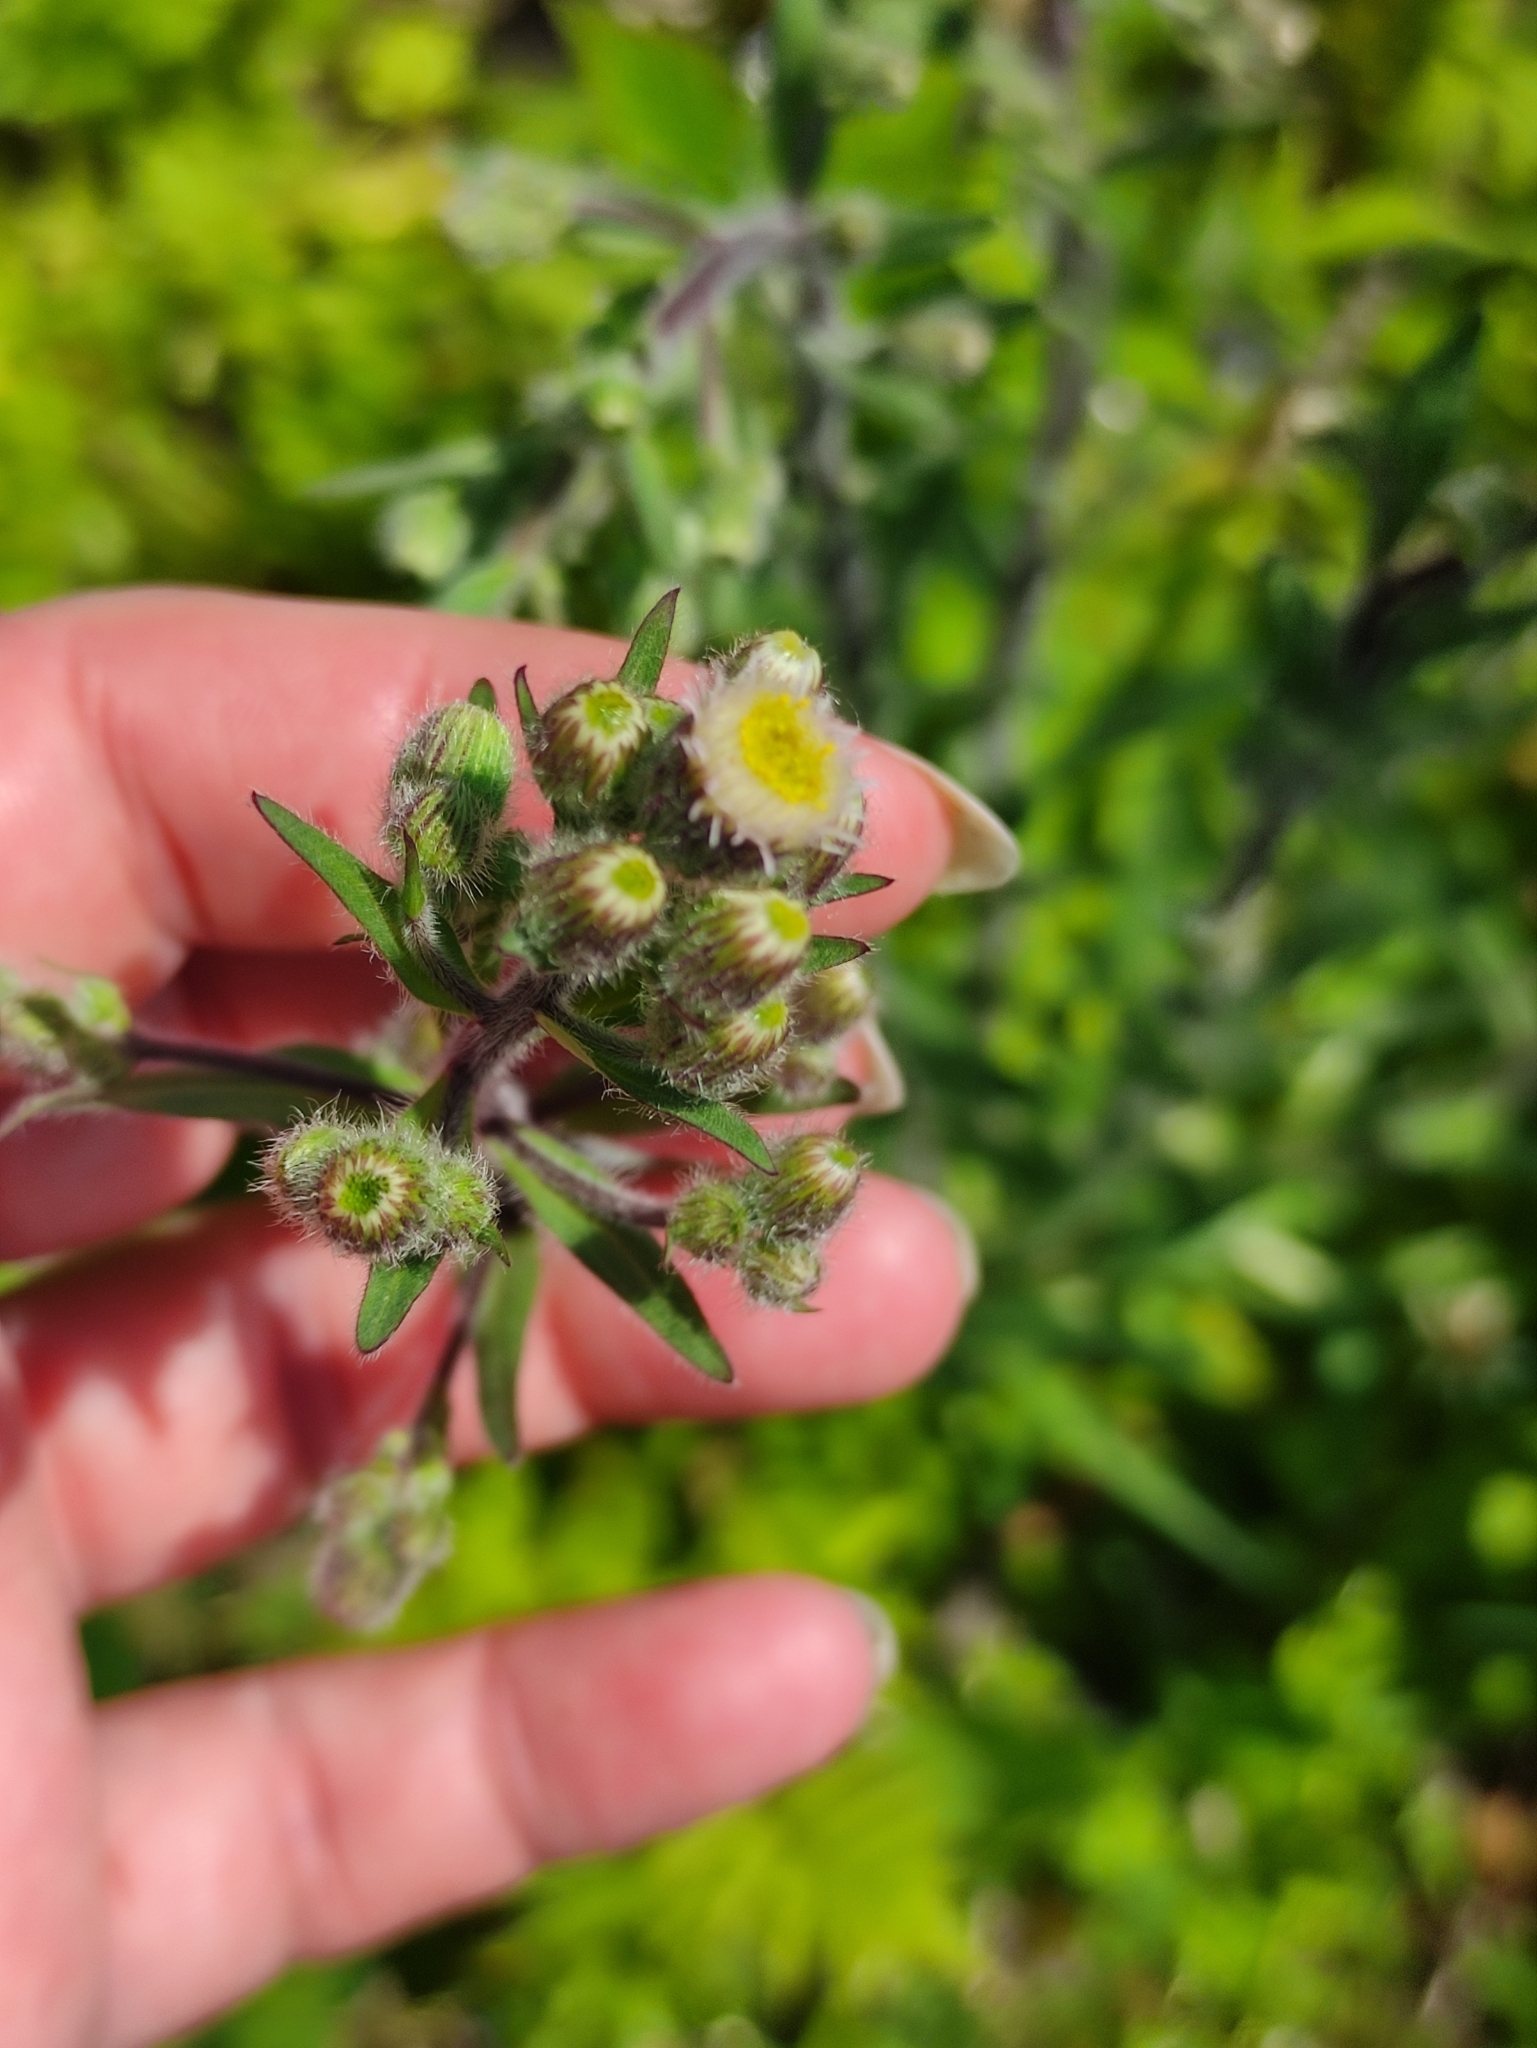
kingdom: Plantae
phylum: Tracheophyta
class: Magnoliopsida
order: Asterales
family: Asteraceae
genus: Erigeron
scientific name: Erigeron acris
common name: Blue fleabane
